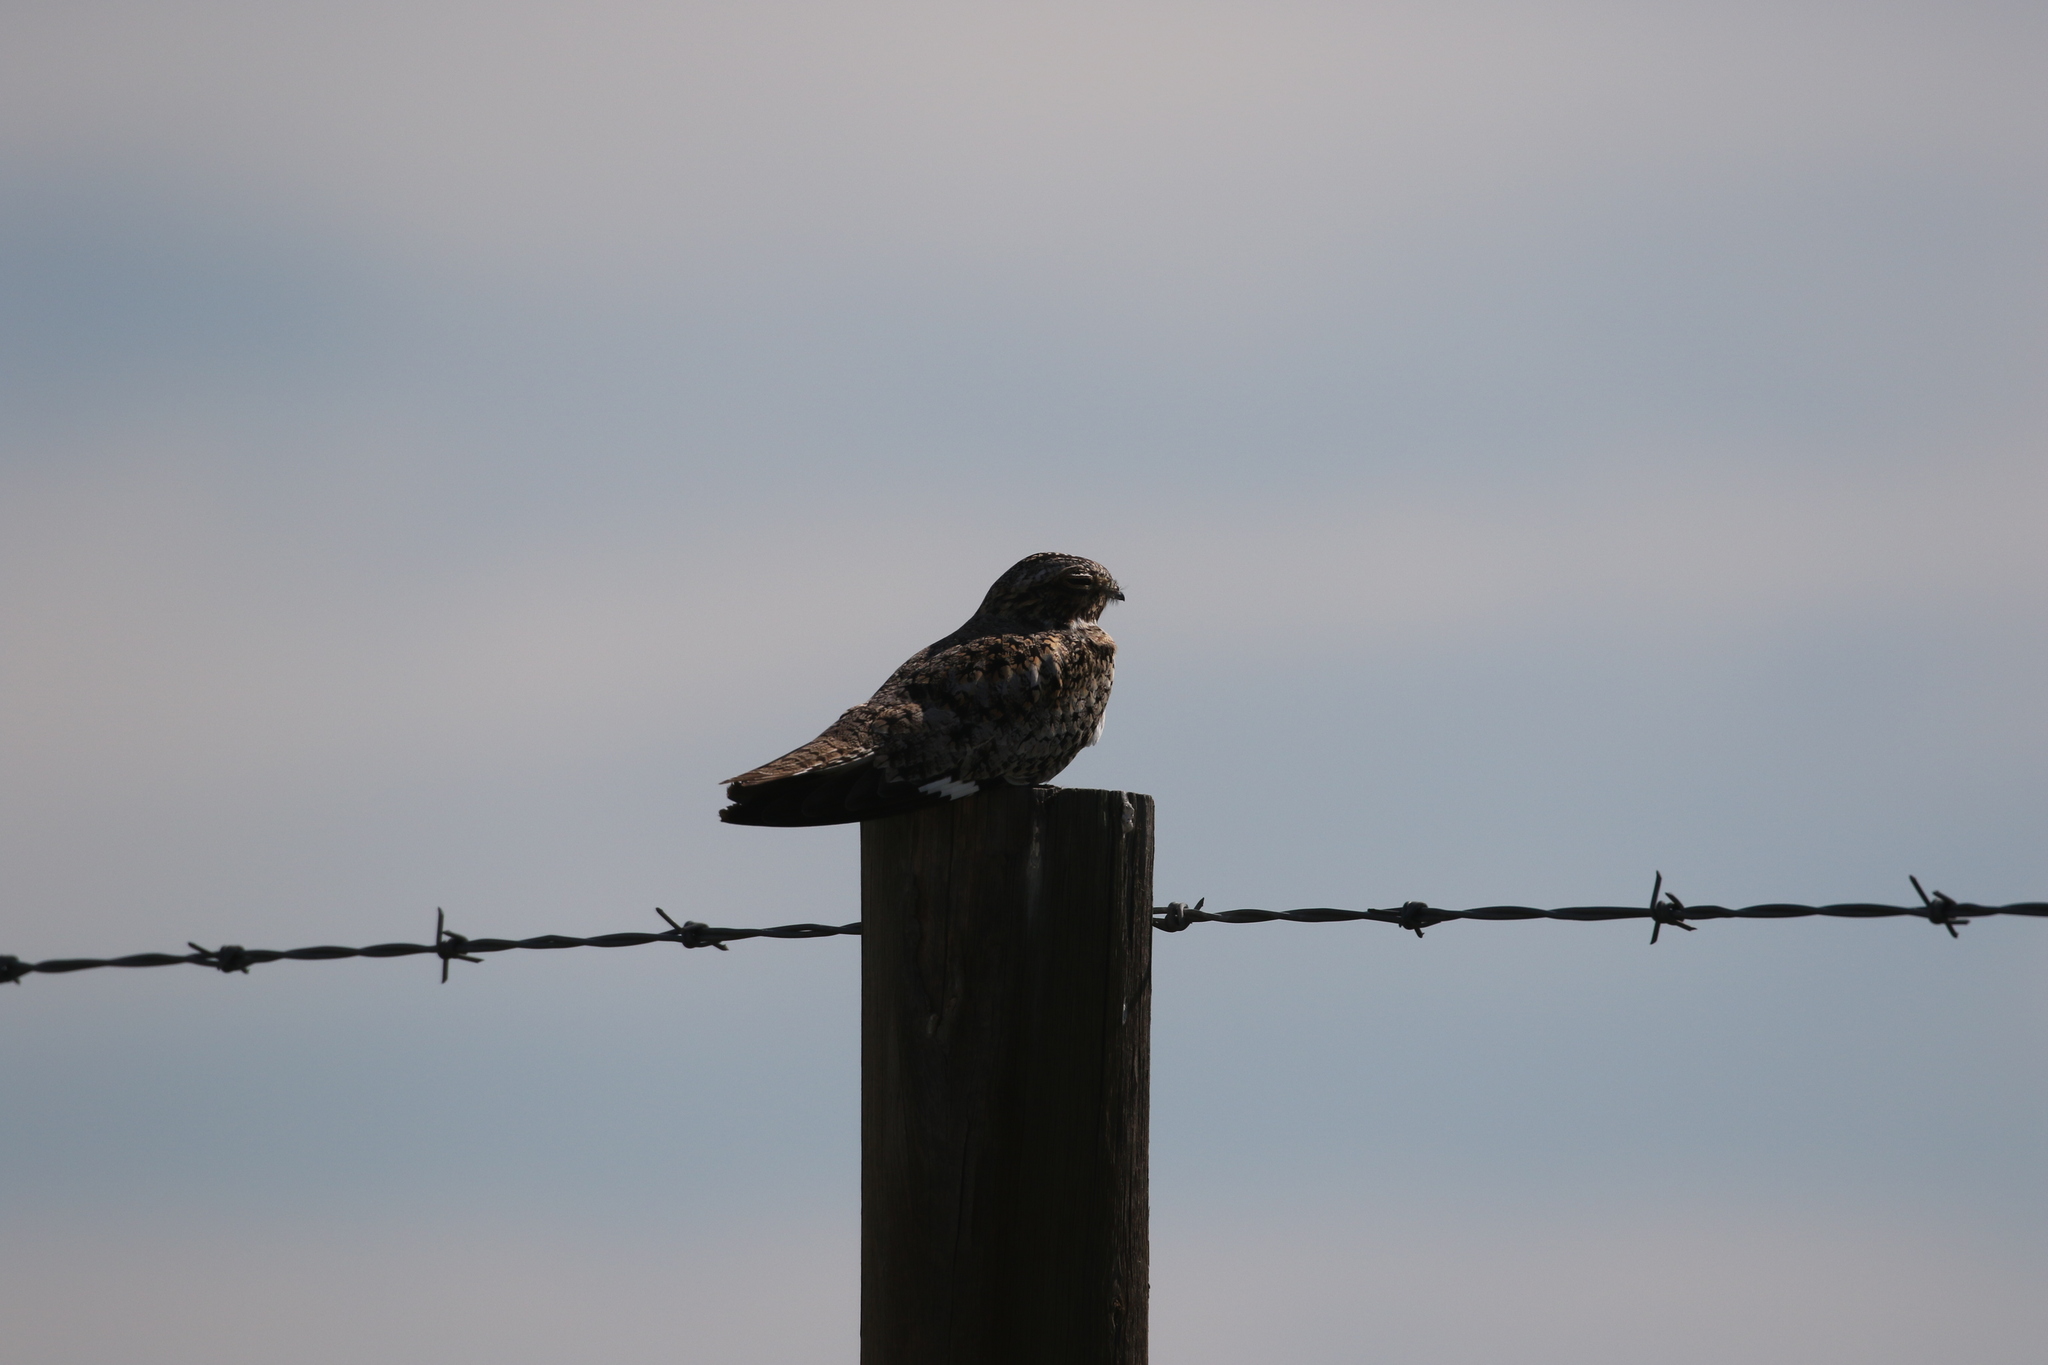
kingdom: Animalia
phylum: Chordata
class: Aves
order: Caprimulgiformes
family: Caprimulgidae
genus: Chordeiles
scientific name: Chordeiles minor
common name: Common nighthawk
